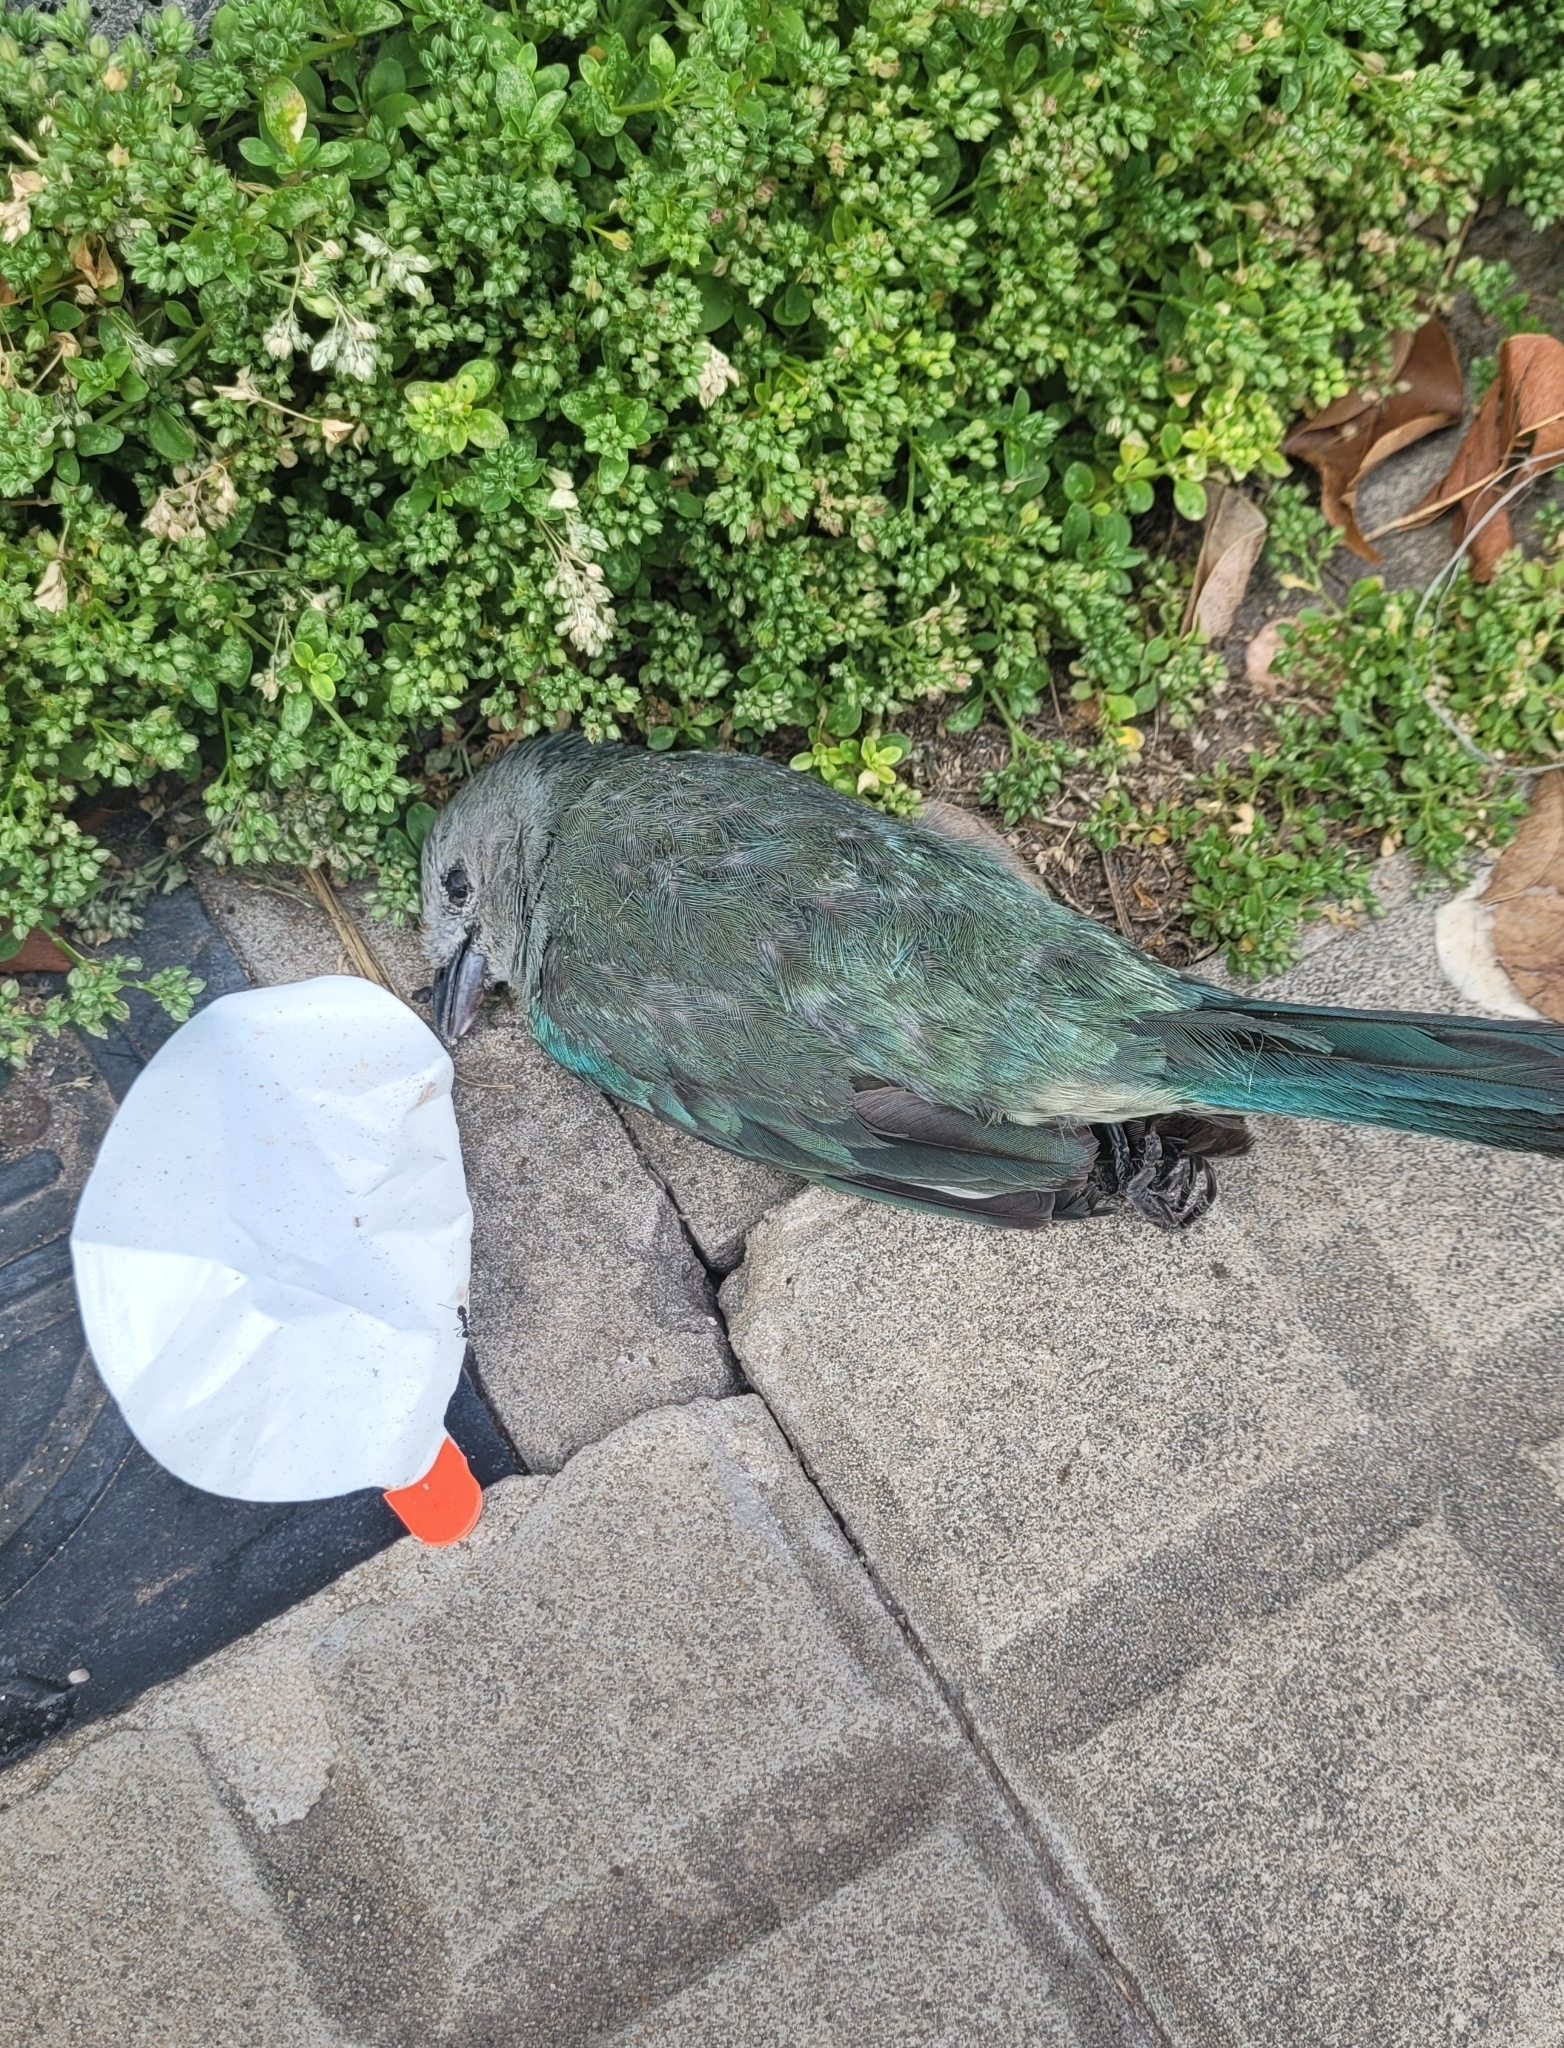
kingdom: Animalia
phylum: Chordata
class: Aves
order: Passeriformes
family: Thraupidae
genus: Thraupis
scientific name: Thraupis sayaca
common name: Sayaca tanager
